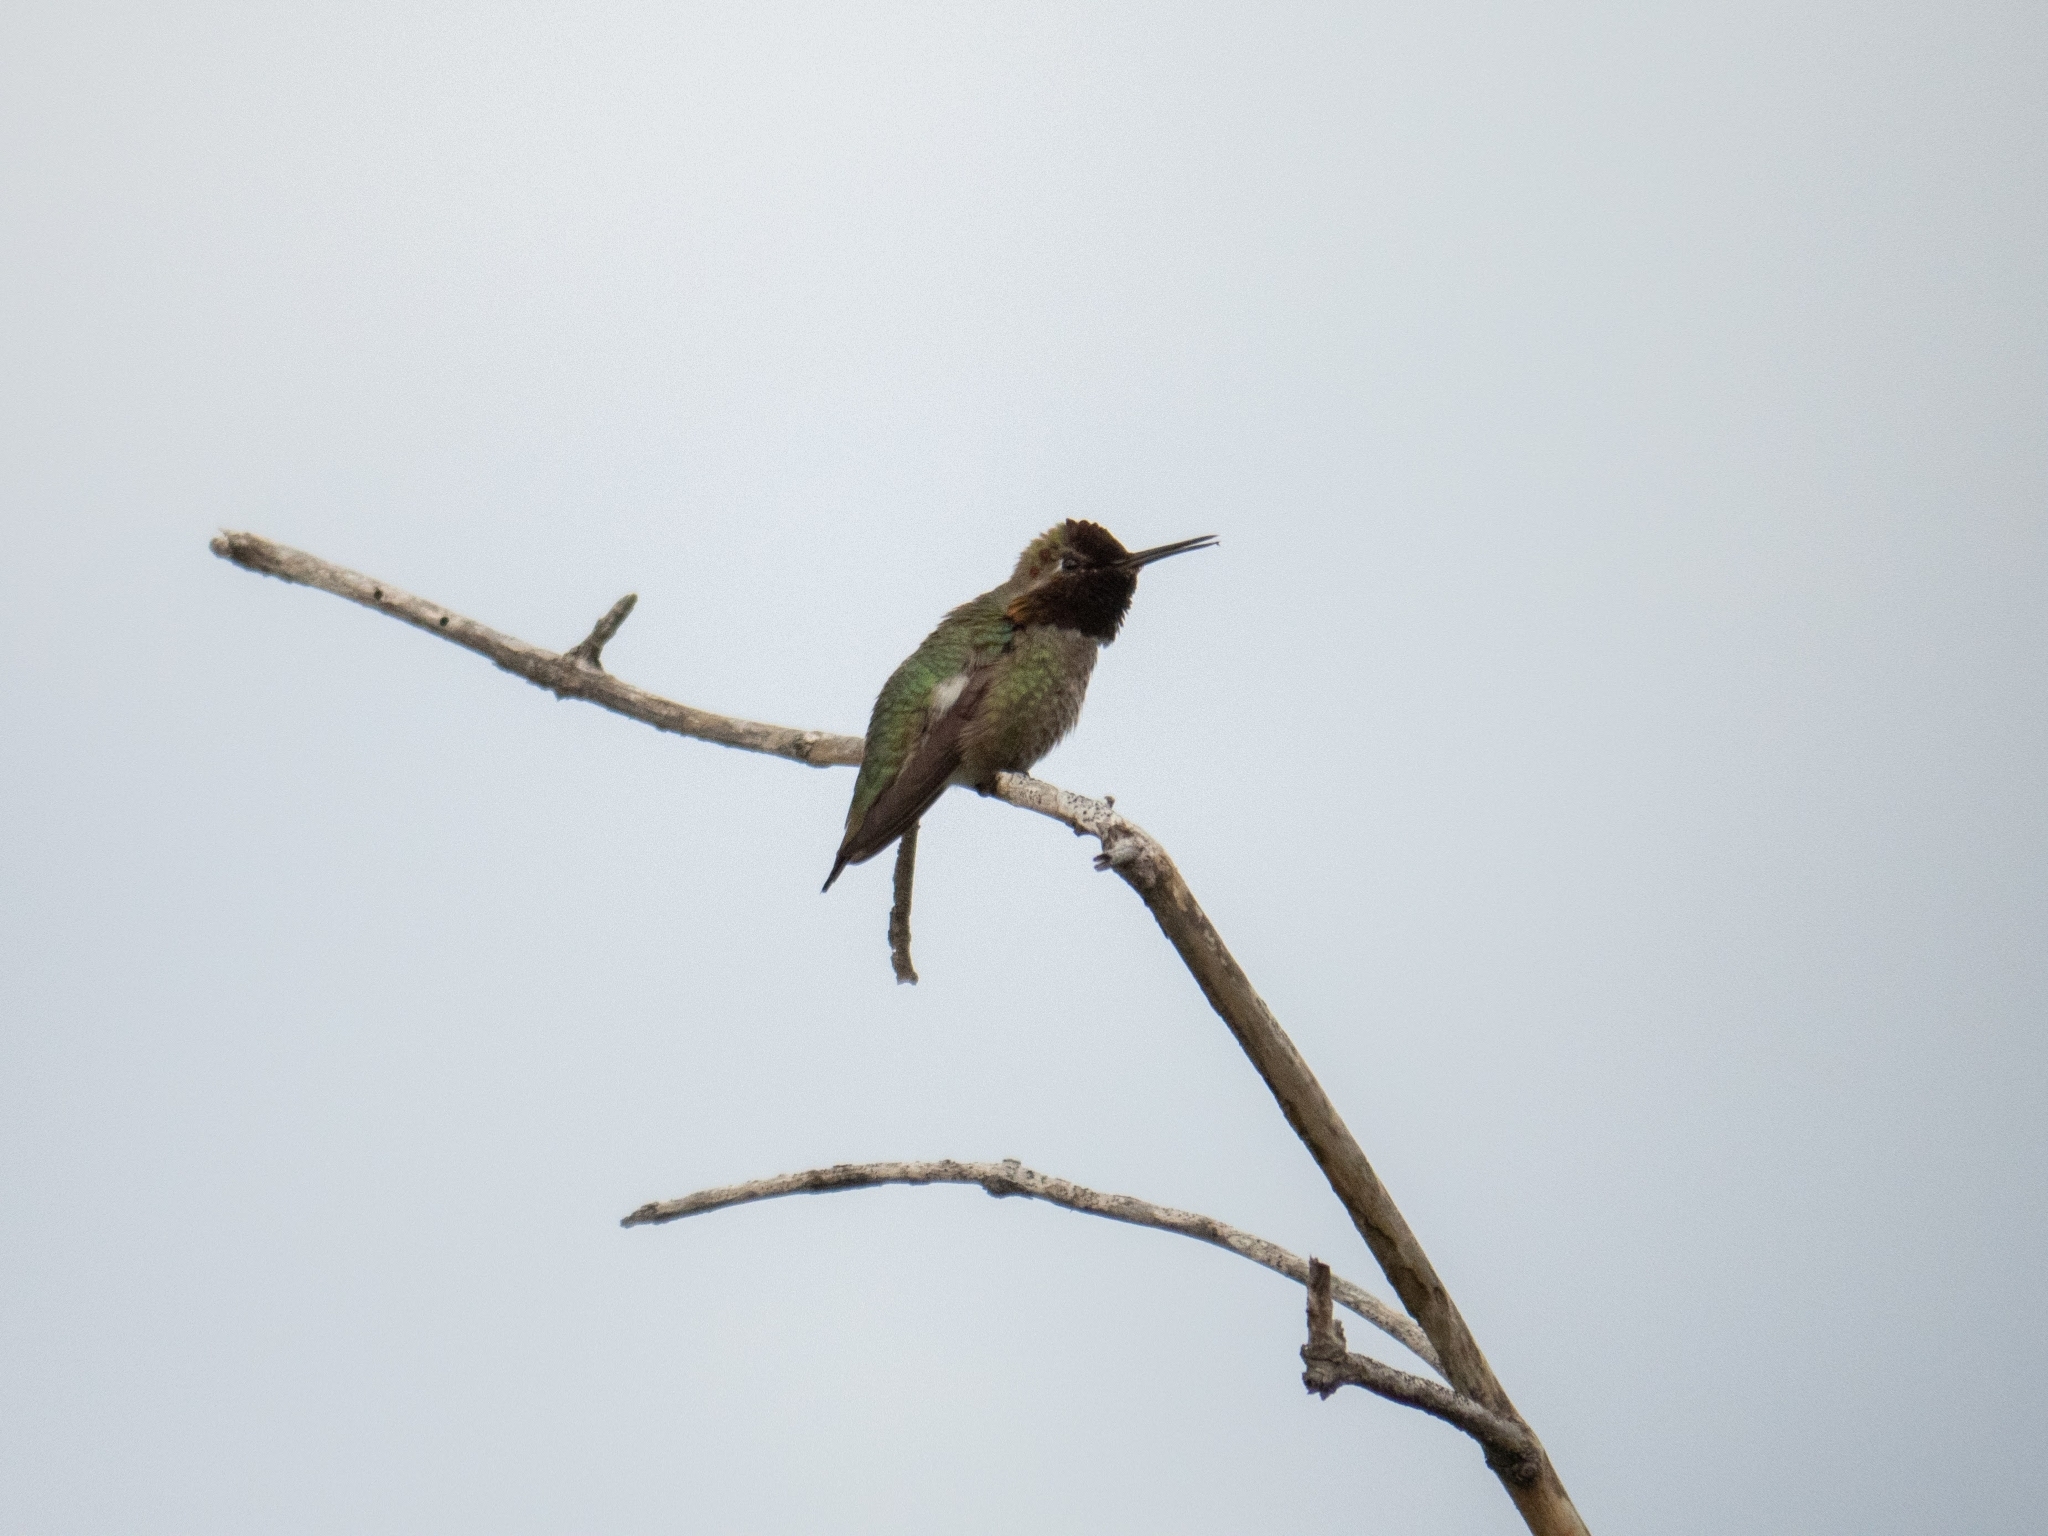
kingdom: Animalia
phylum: Chordata
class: Aves
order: Apodiformes
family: Trochilidae
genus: Calypte
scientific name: Calypte anna
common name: Anna's hummingbird
